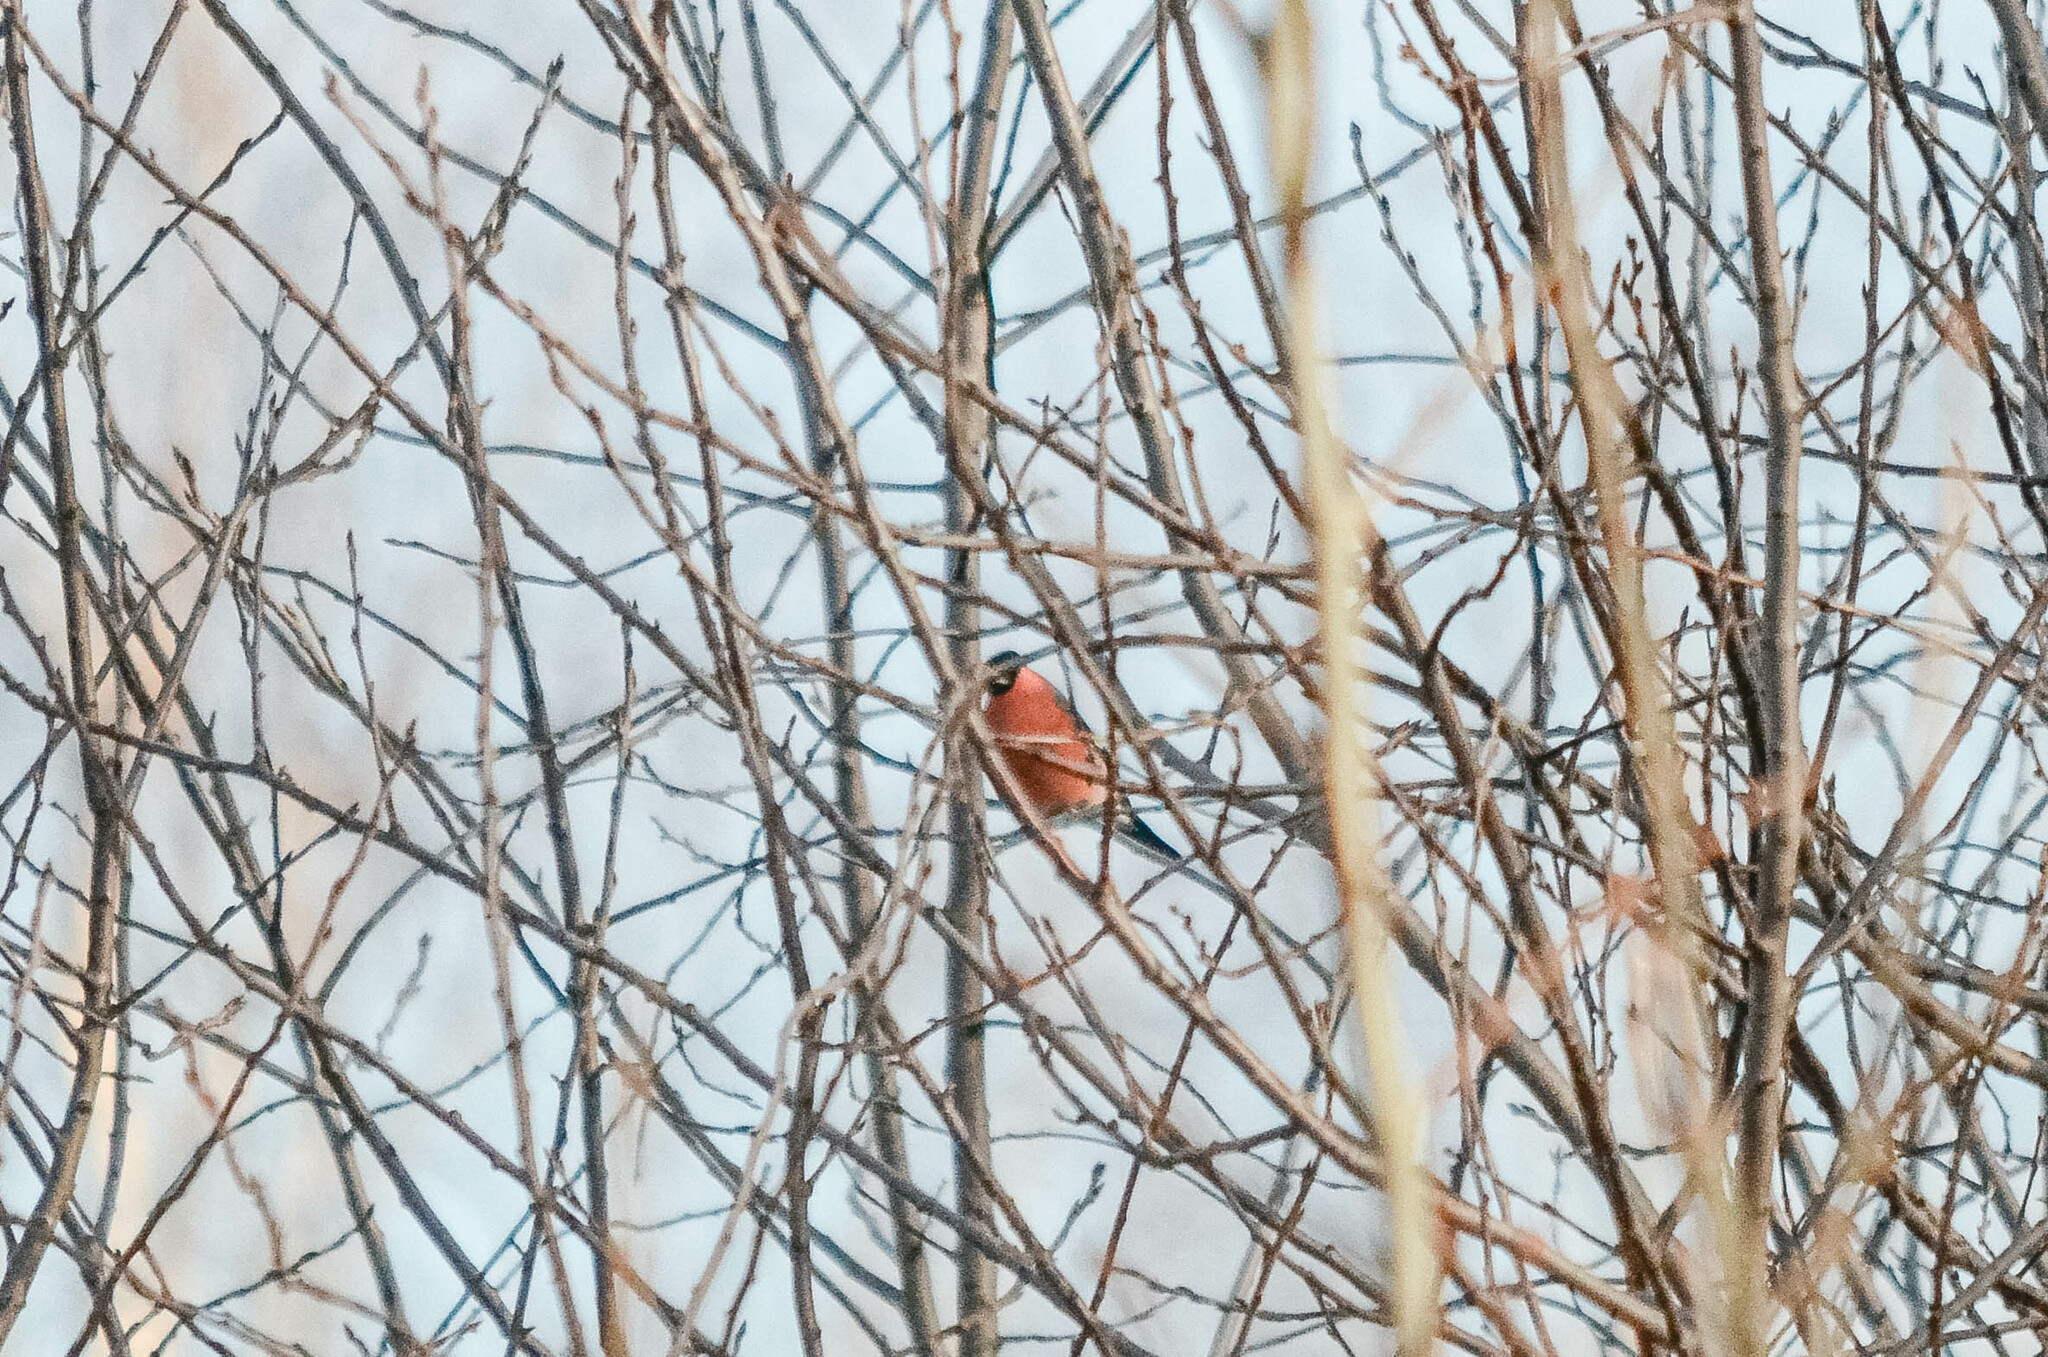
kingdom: Animalia
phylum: Chordata
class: Aves
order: Passeriformes
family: Fringillidae
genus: Pyrrhula
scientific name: Pyrrhula pyrrhula
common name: Eurasian bullfinch
